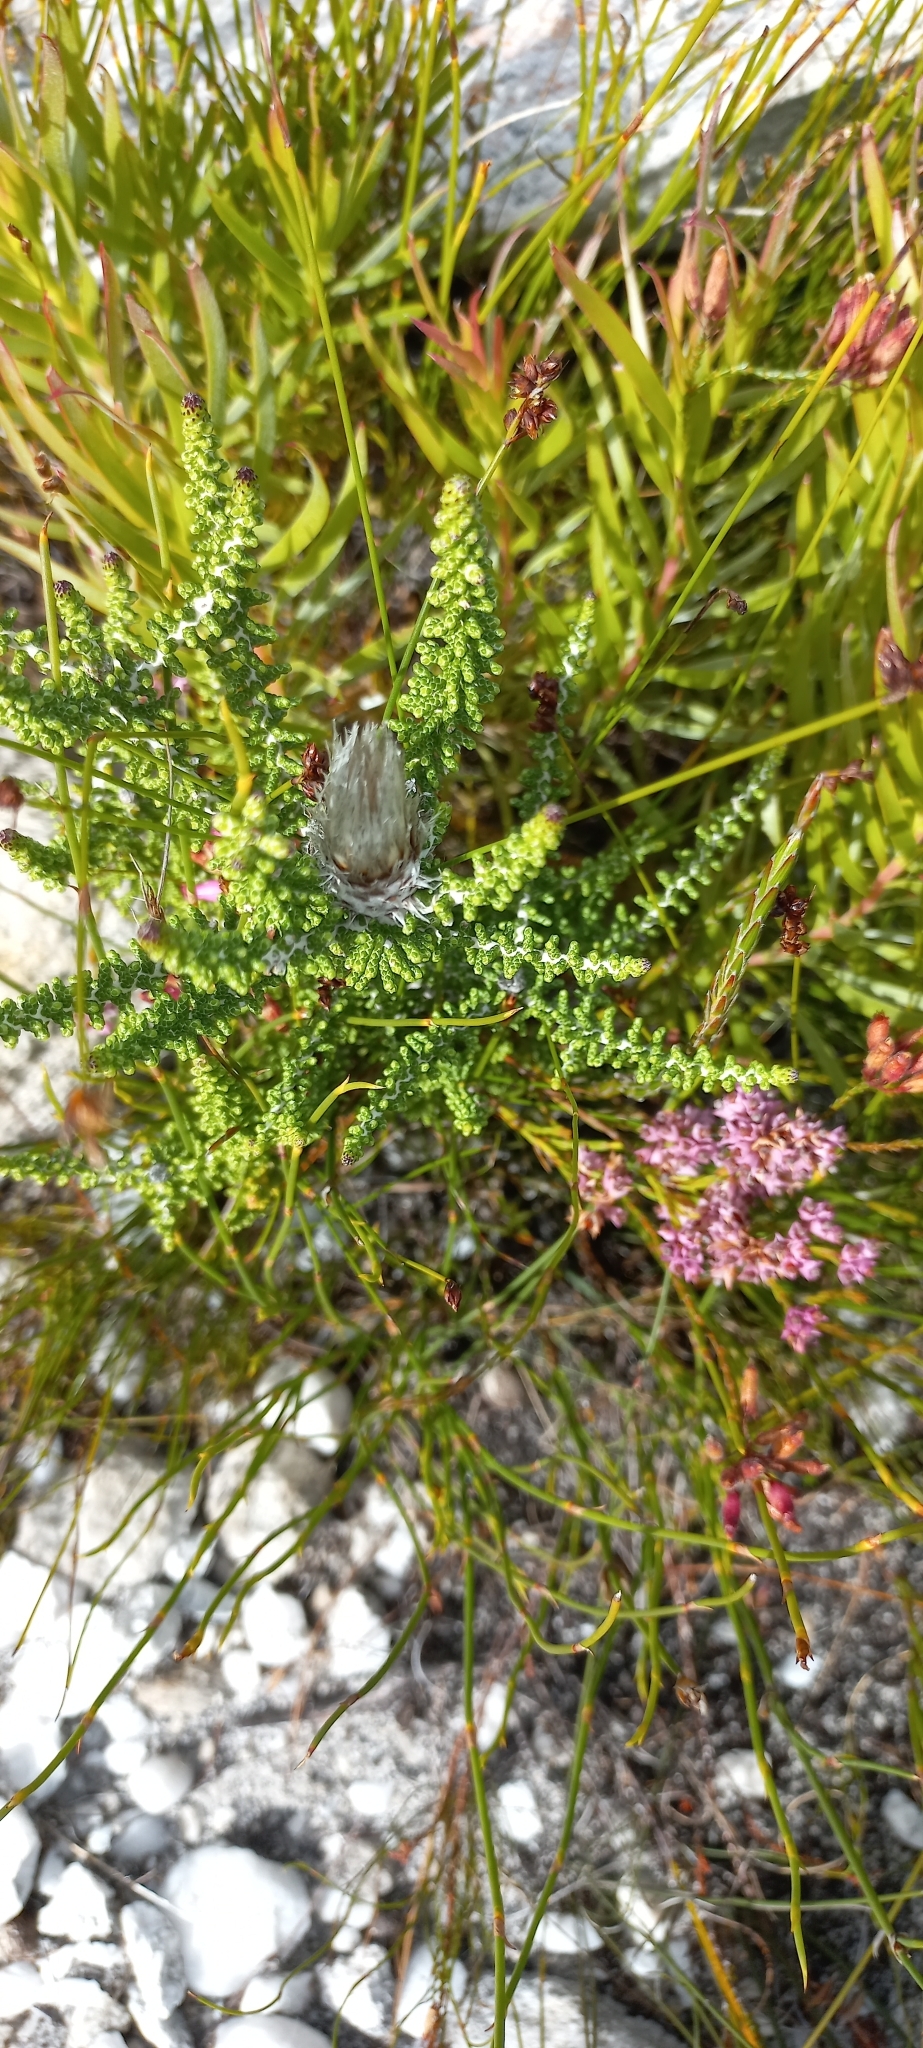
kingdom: Plantae
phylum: Tracheophyta
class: Magnoliopsida
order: Asterales
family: Asteraceae
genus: Phaenocoma
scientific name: Phaenocoma prolifera
